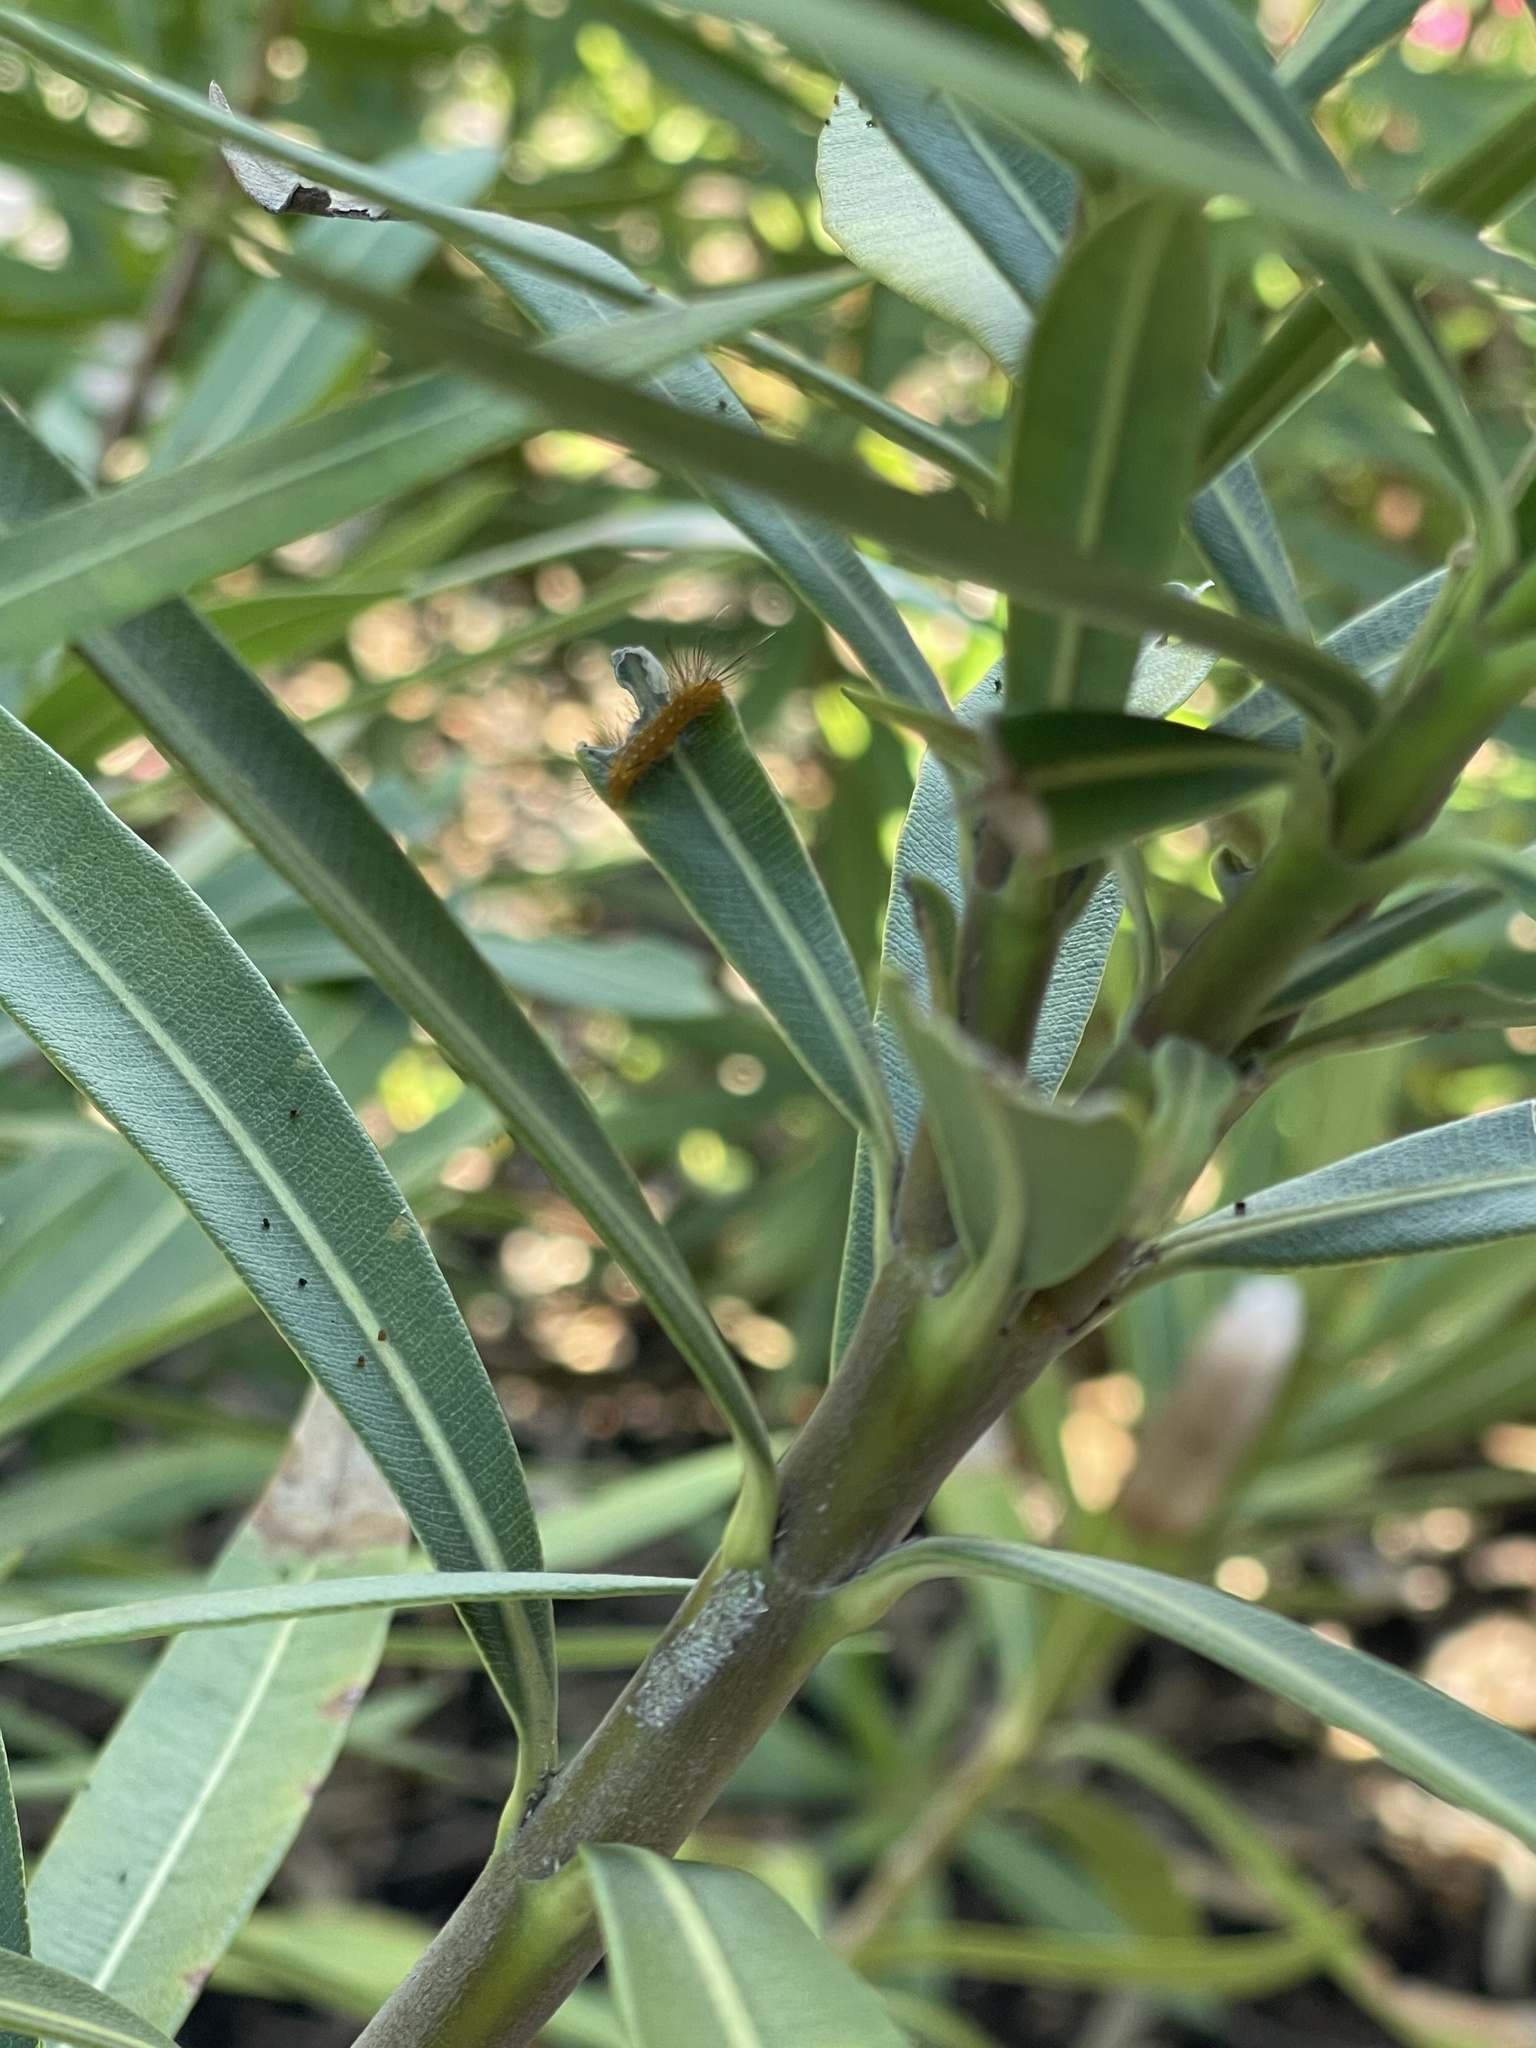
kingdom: Animalia
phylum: Arthropoda
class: Insecta
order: Lepidoptera
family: Erebidae
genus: Empyreuma
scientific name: Empyreuma pugione
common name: Spotted oleander caterpillar moth
